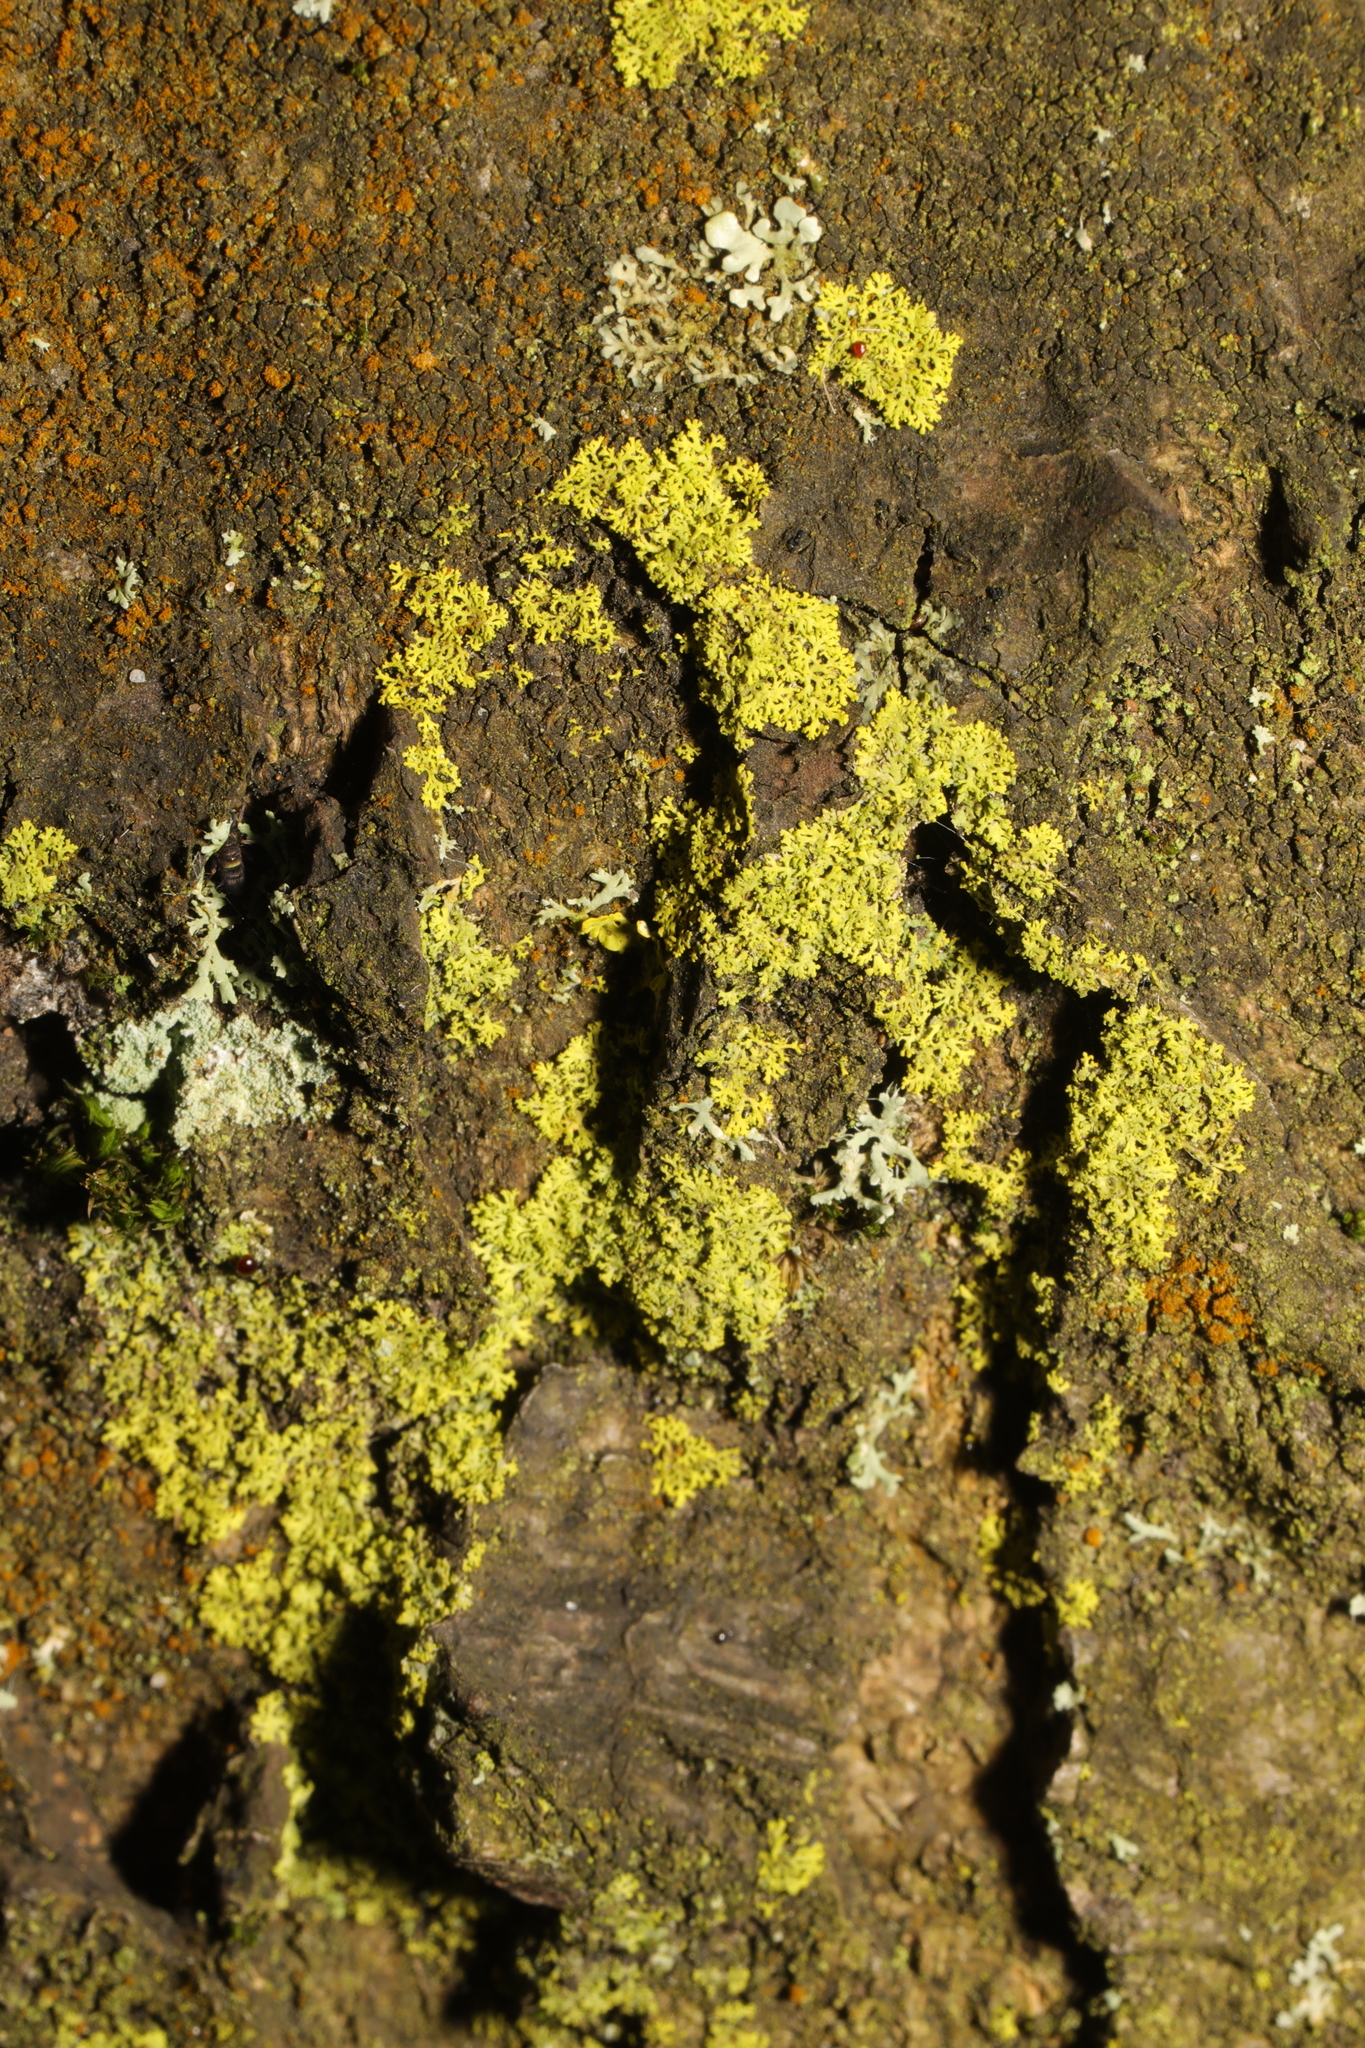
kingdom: Fungi
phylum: Ascomycota
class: Candelariomycetes
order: Candelariales
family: Candelariaceae
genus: Candelaria
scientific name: Candelaria concolor
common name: Candleflame lichen
